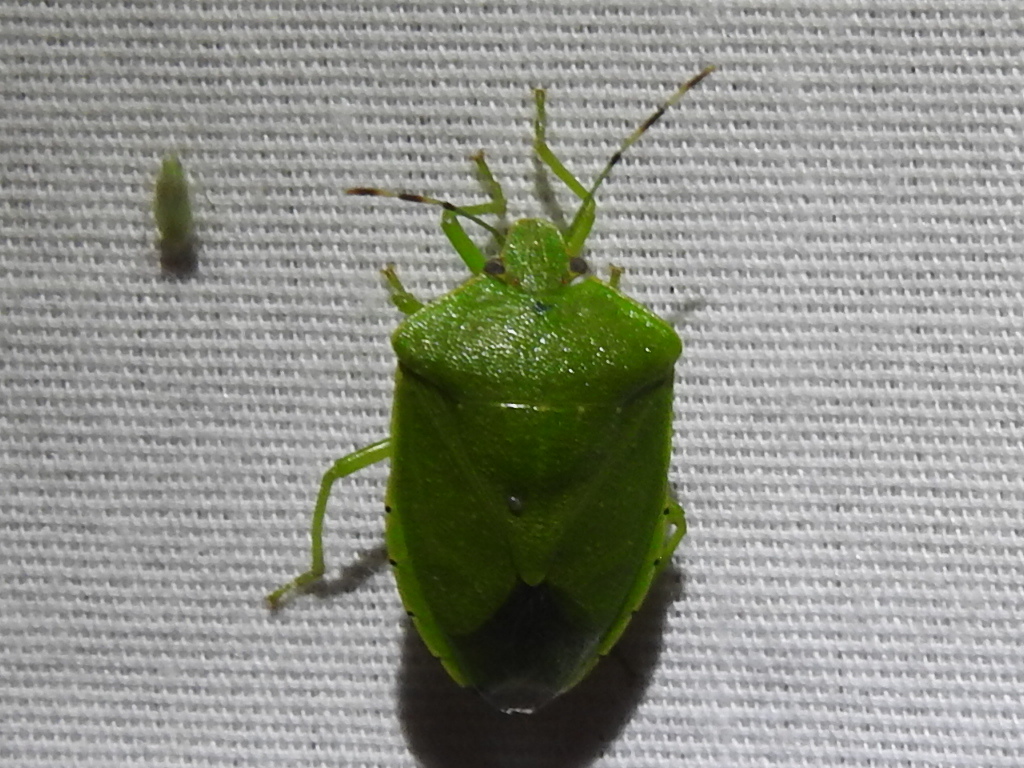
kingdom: Animalia
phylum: Arthropoda
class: Insecta
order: Hemiptera
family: Pentatomidae
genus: Chinavia
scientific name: Chinavia hilaris
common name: Green stink bug
